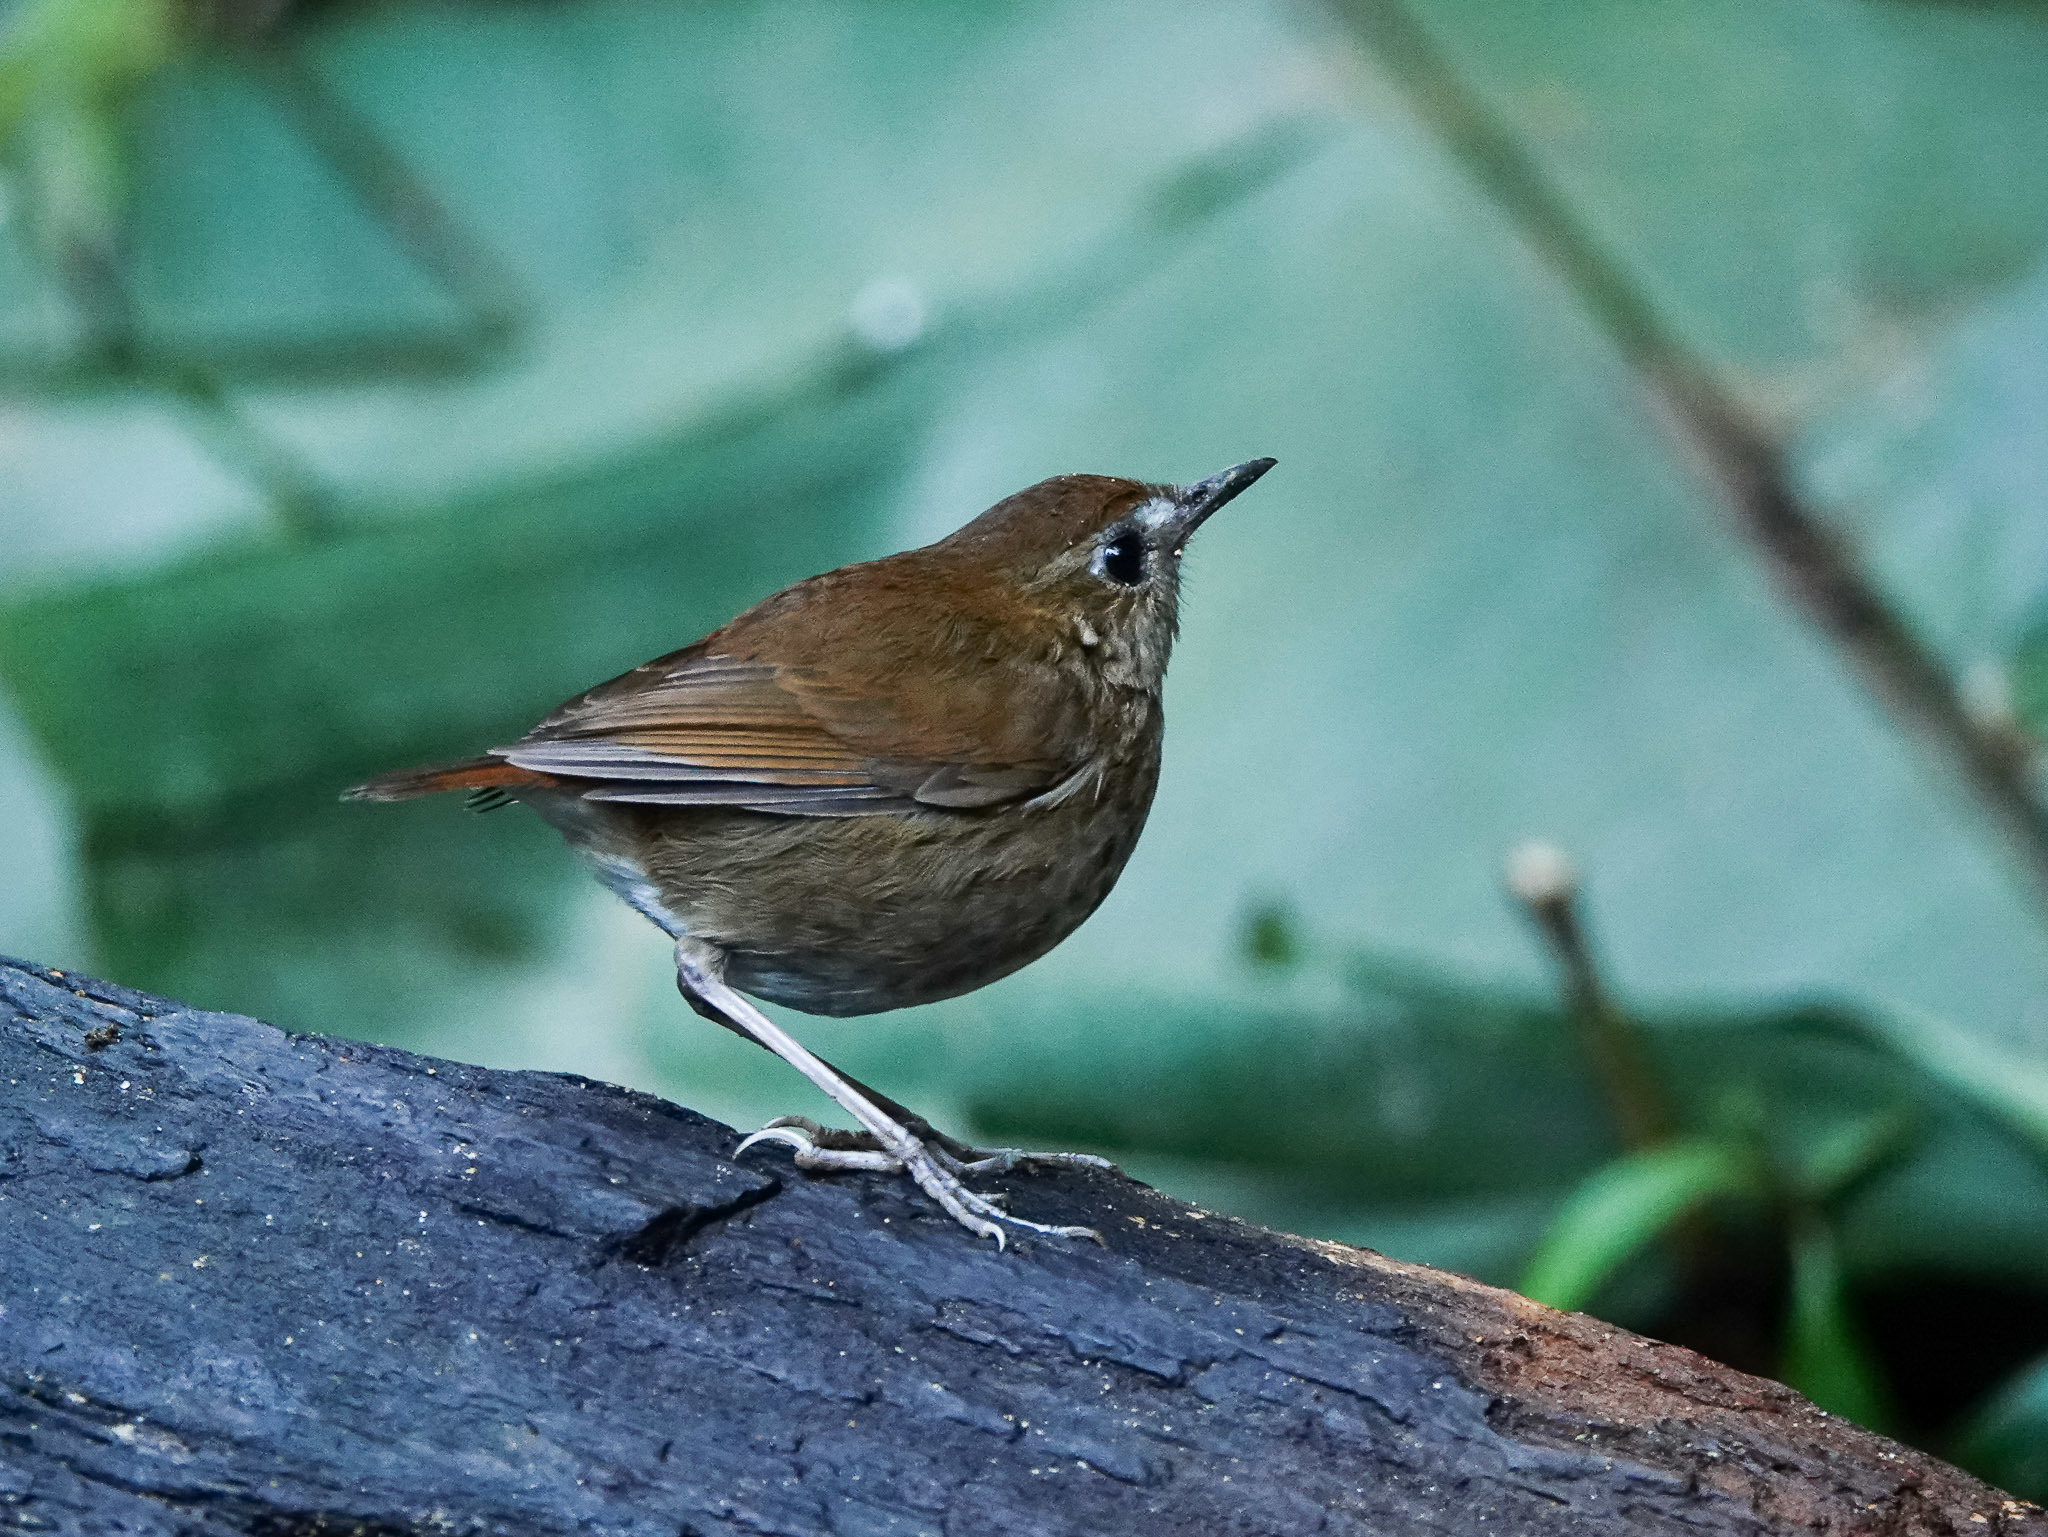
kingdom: Animalia
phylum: Chordata
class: Aves
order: Passeriformes
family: Muscicapidae
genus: Brachypteryx
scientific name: Brachypteryx leucophris
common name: Lesser shortwing
